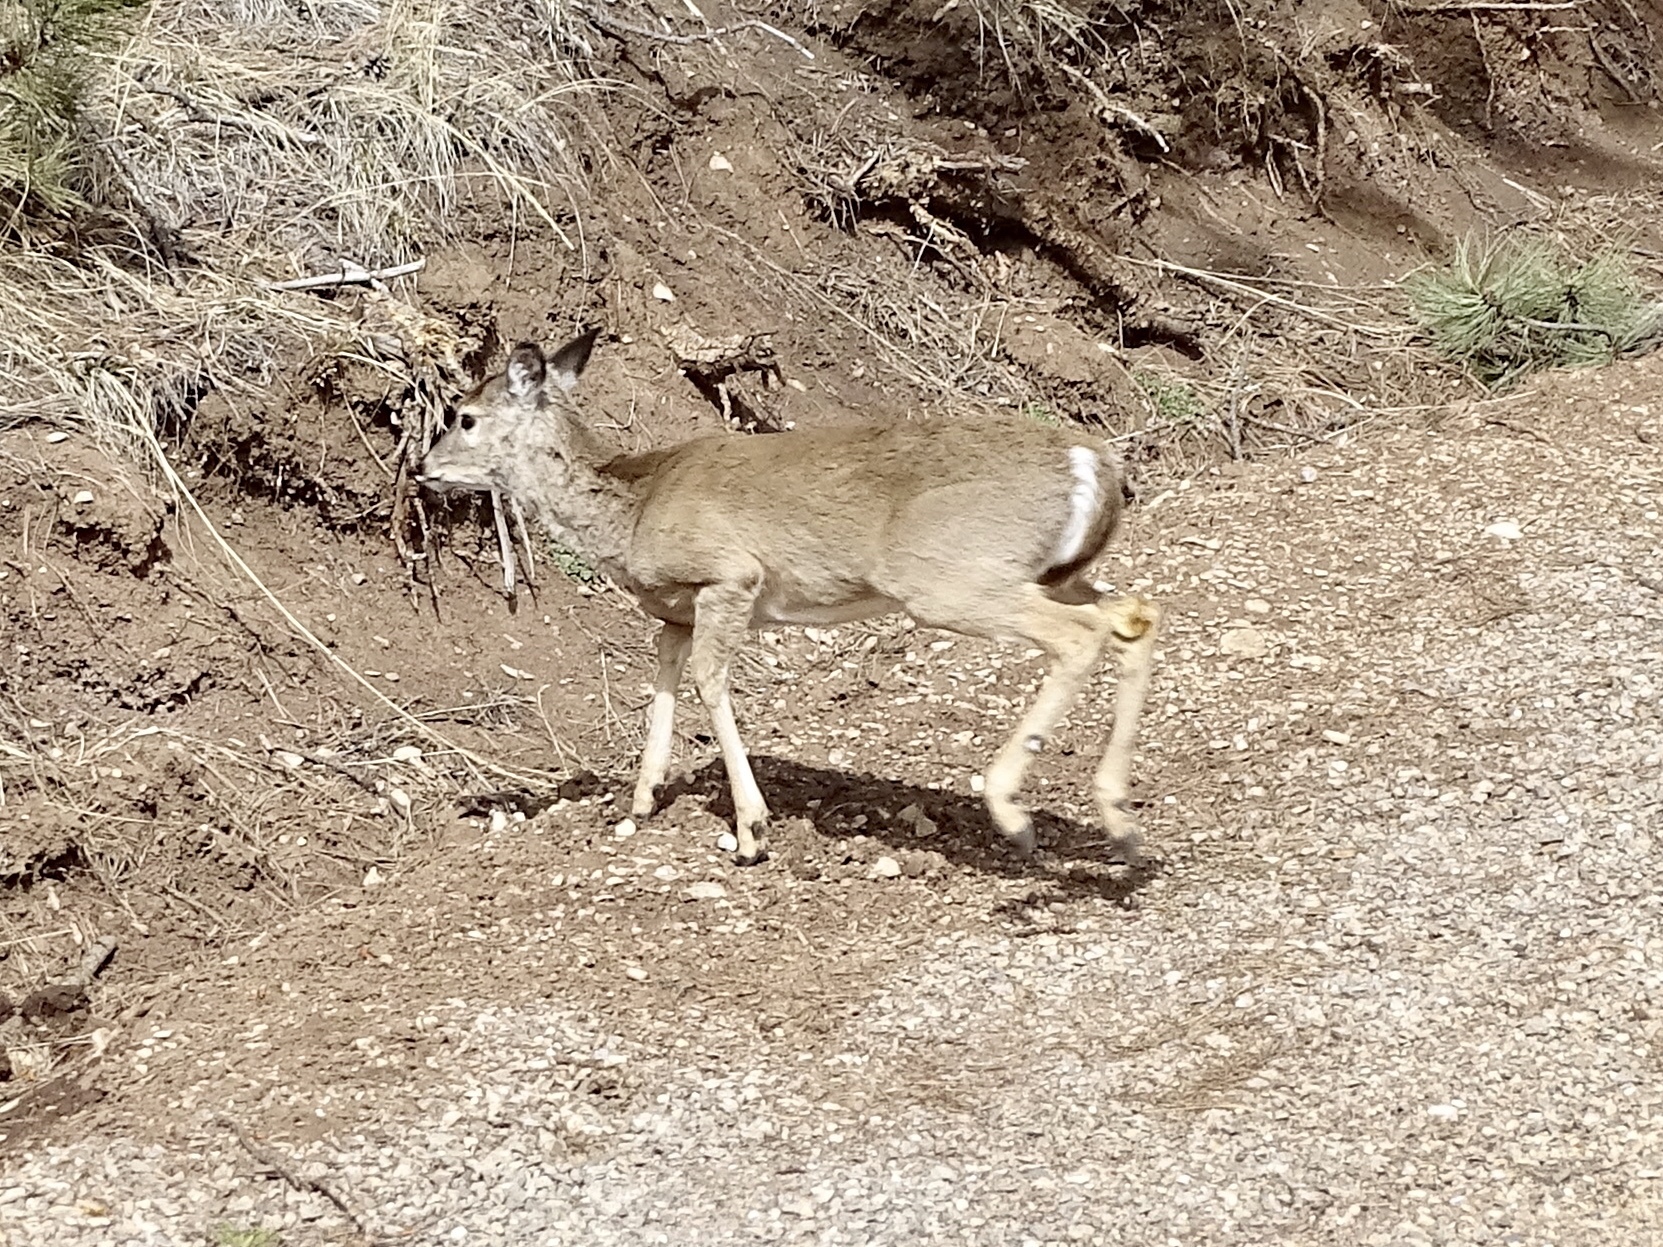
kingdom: Animalia
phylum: Chordata
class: Mammalia
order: Artiodactyla
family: Cervidae
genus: Odocoileus
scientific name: Odocoileus virginianus
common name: White-tailed deer
